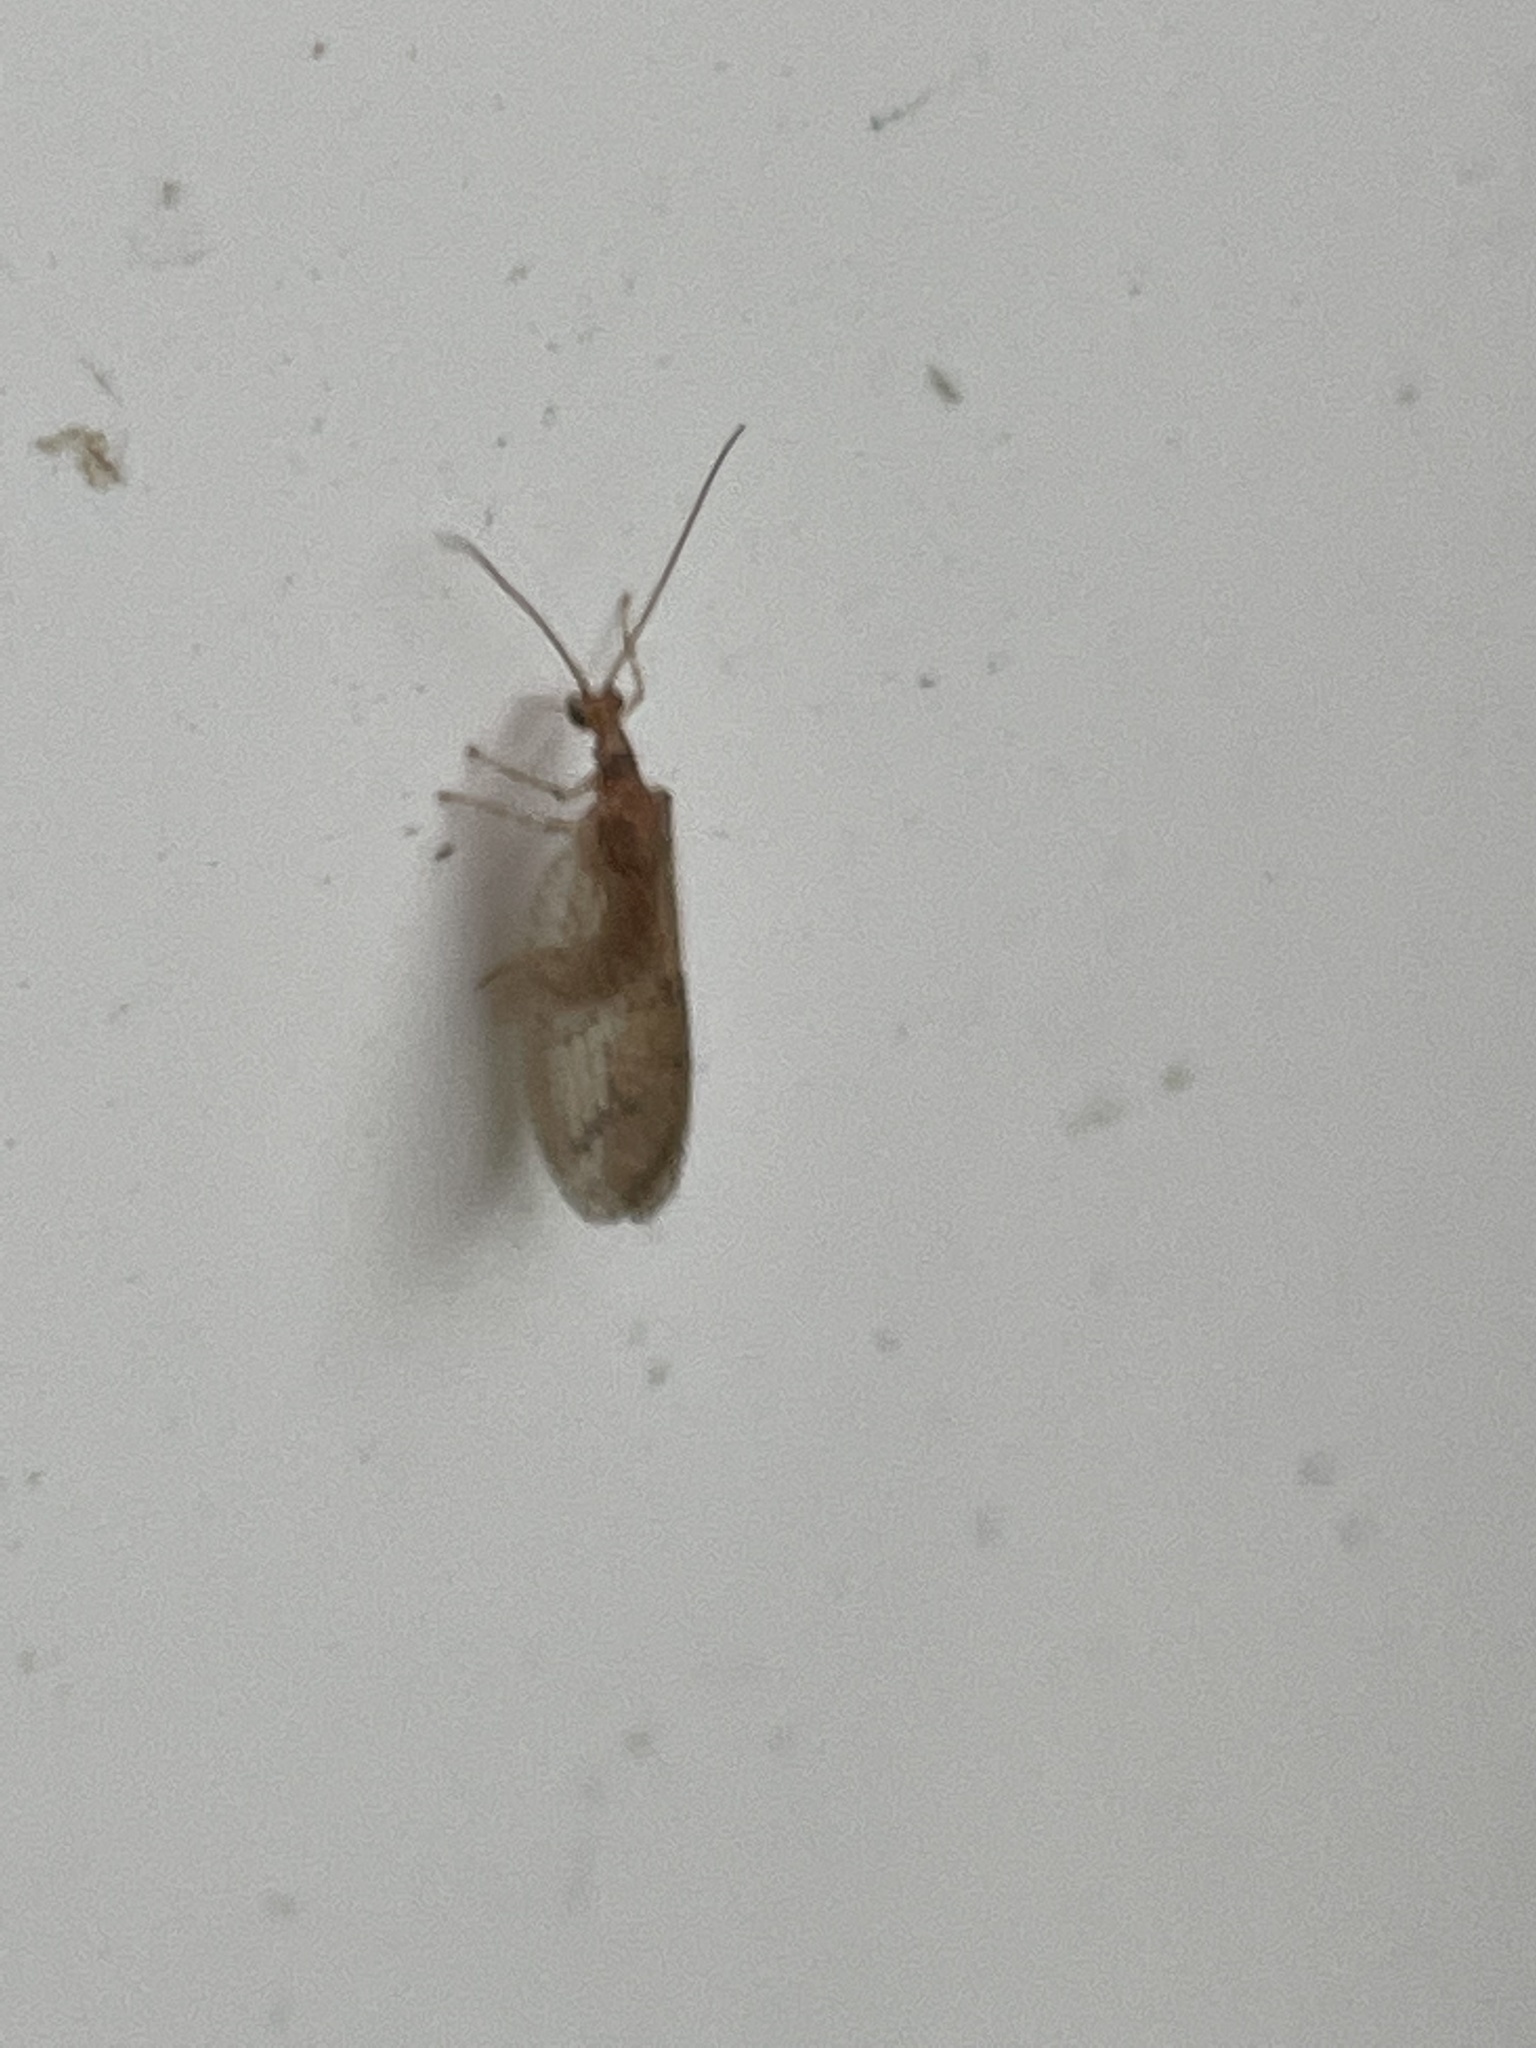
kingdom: Animalia
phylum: Arthropoda
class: Insecta
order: Neuroptera
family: Hemerobiidae
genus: Micromus
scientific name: Micromus posticus
